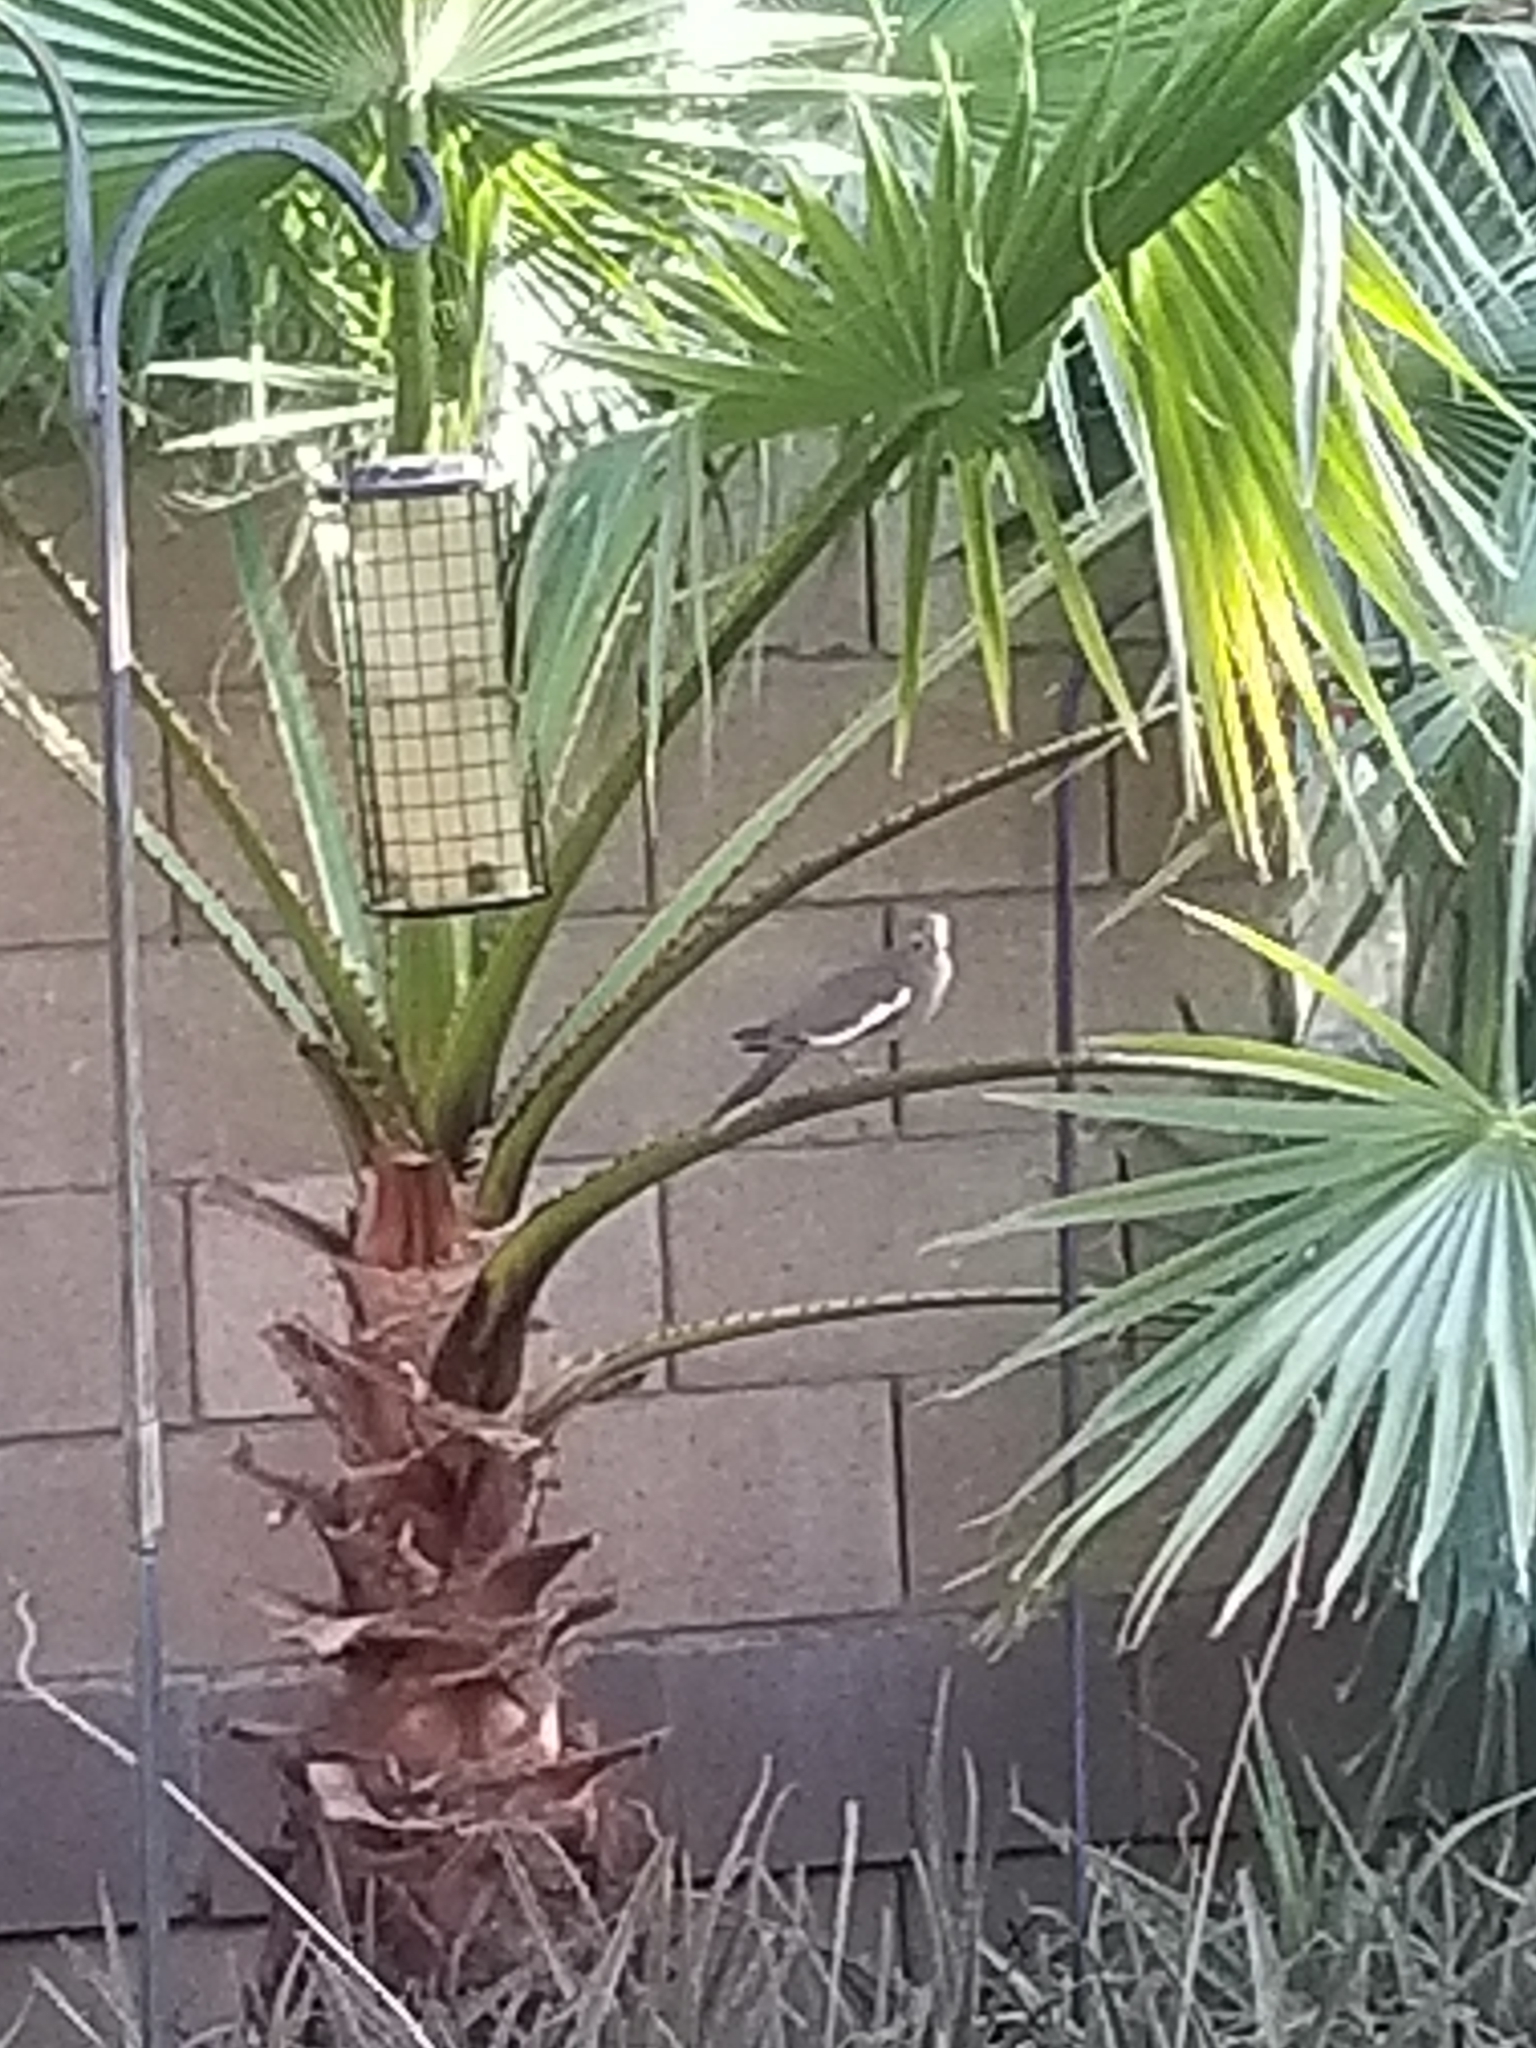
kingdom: Animalia
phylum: Chordata
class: Aves
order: Columbiformes
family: Columbidae
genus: Zenaida
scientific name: Zenaida asiatica
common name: White-winged dove
